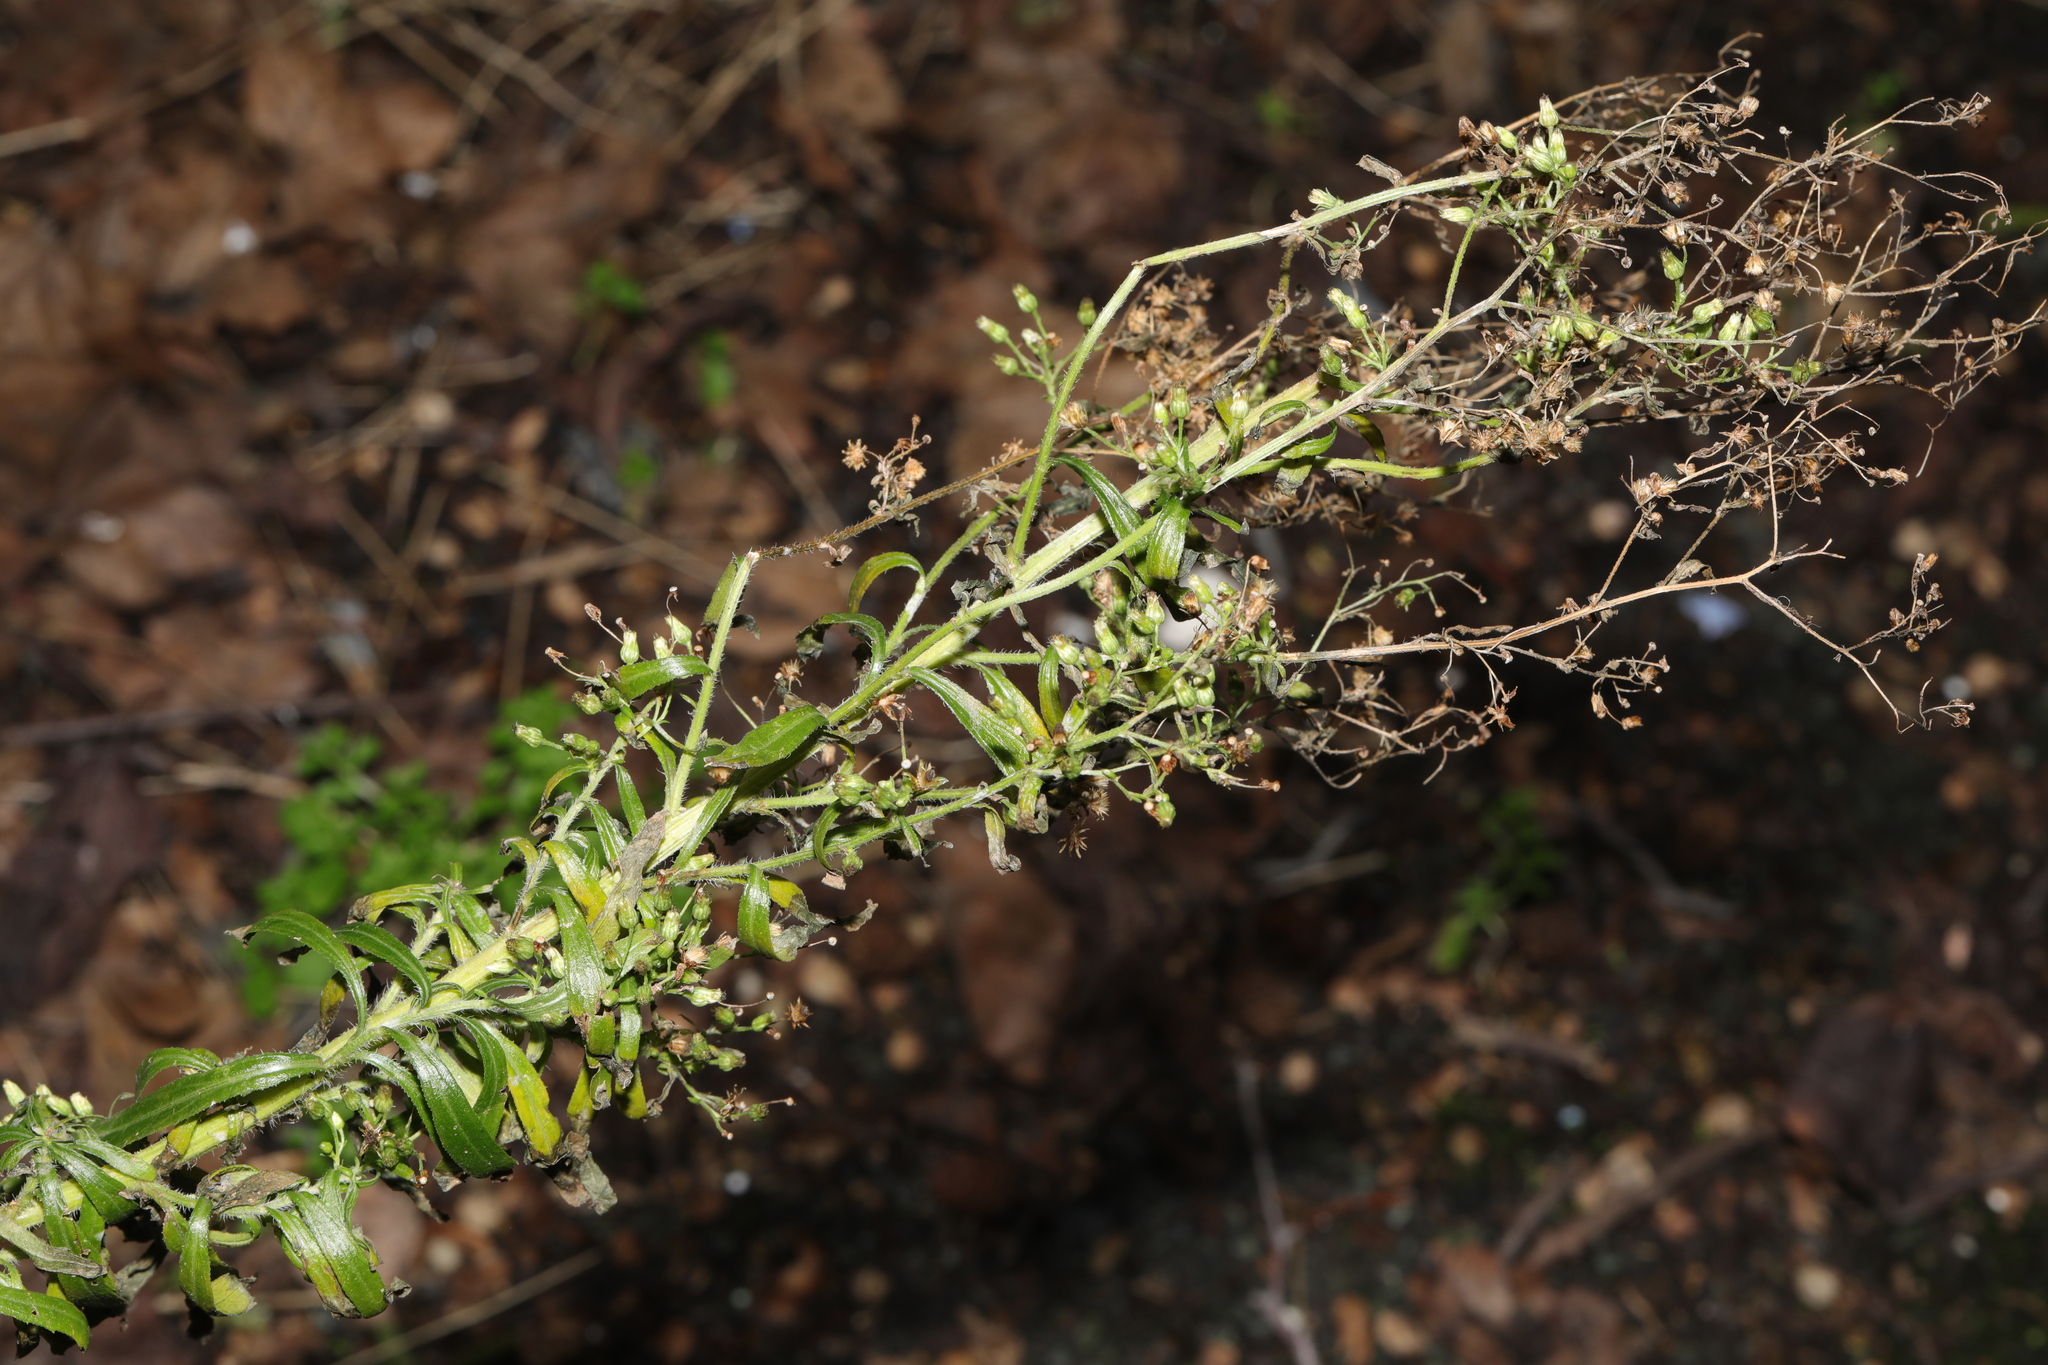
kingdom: Plantae
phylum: Tracheophyta
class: Magnoliopsida
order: Asterales
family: Asteraceae
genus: Erigeron
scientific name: Erigeron canadensis
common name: Canadian fleabane
